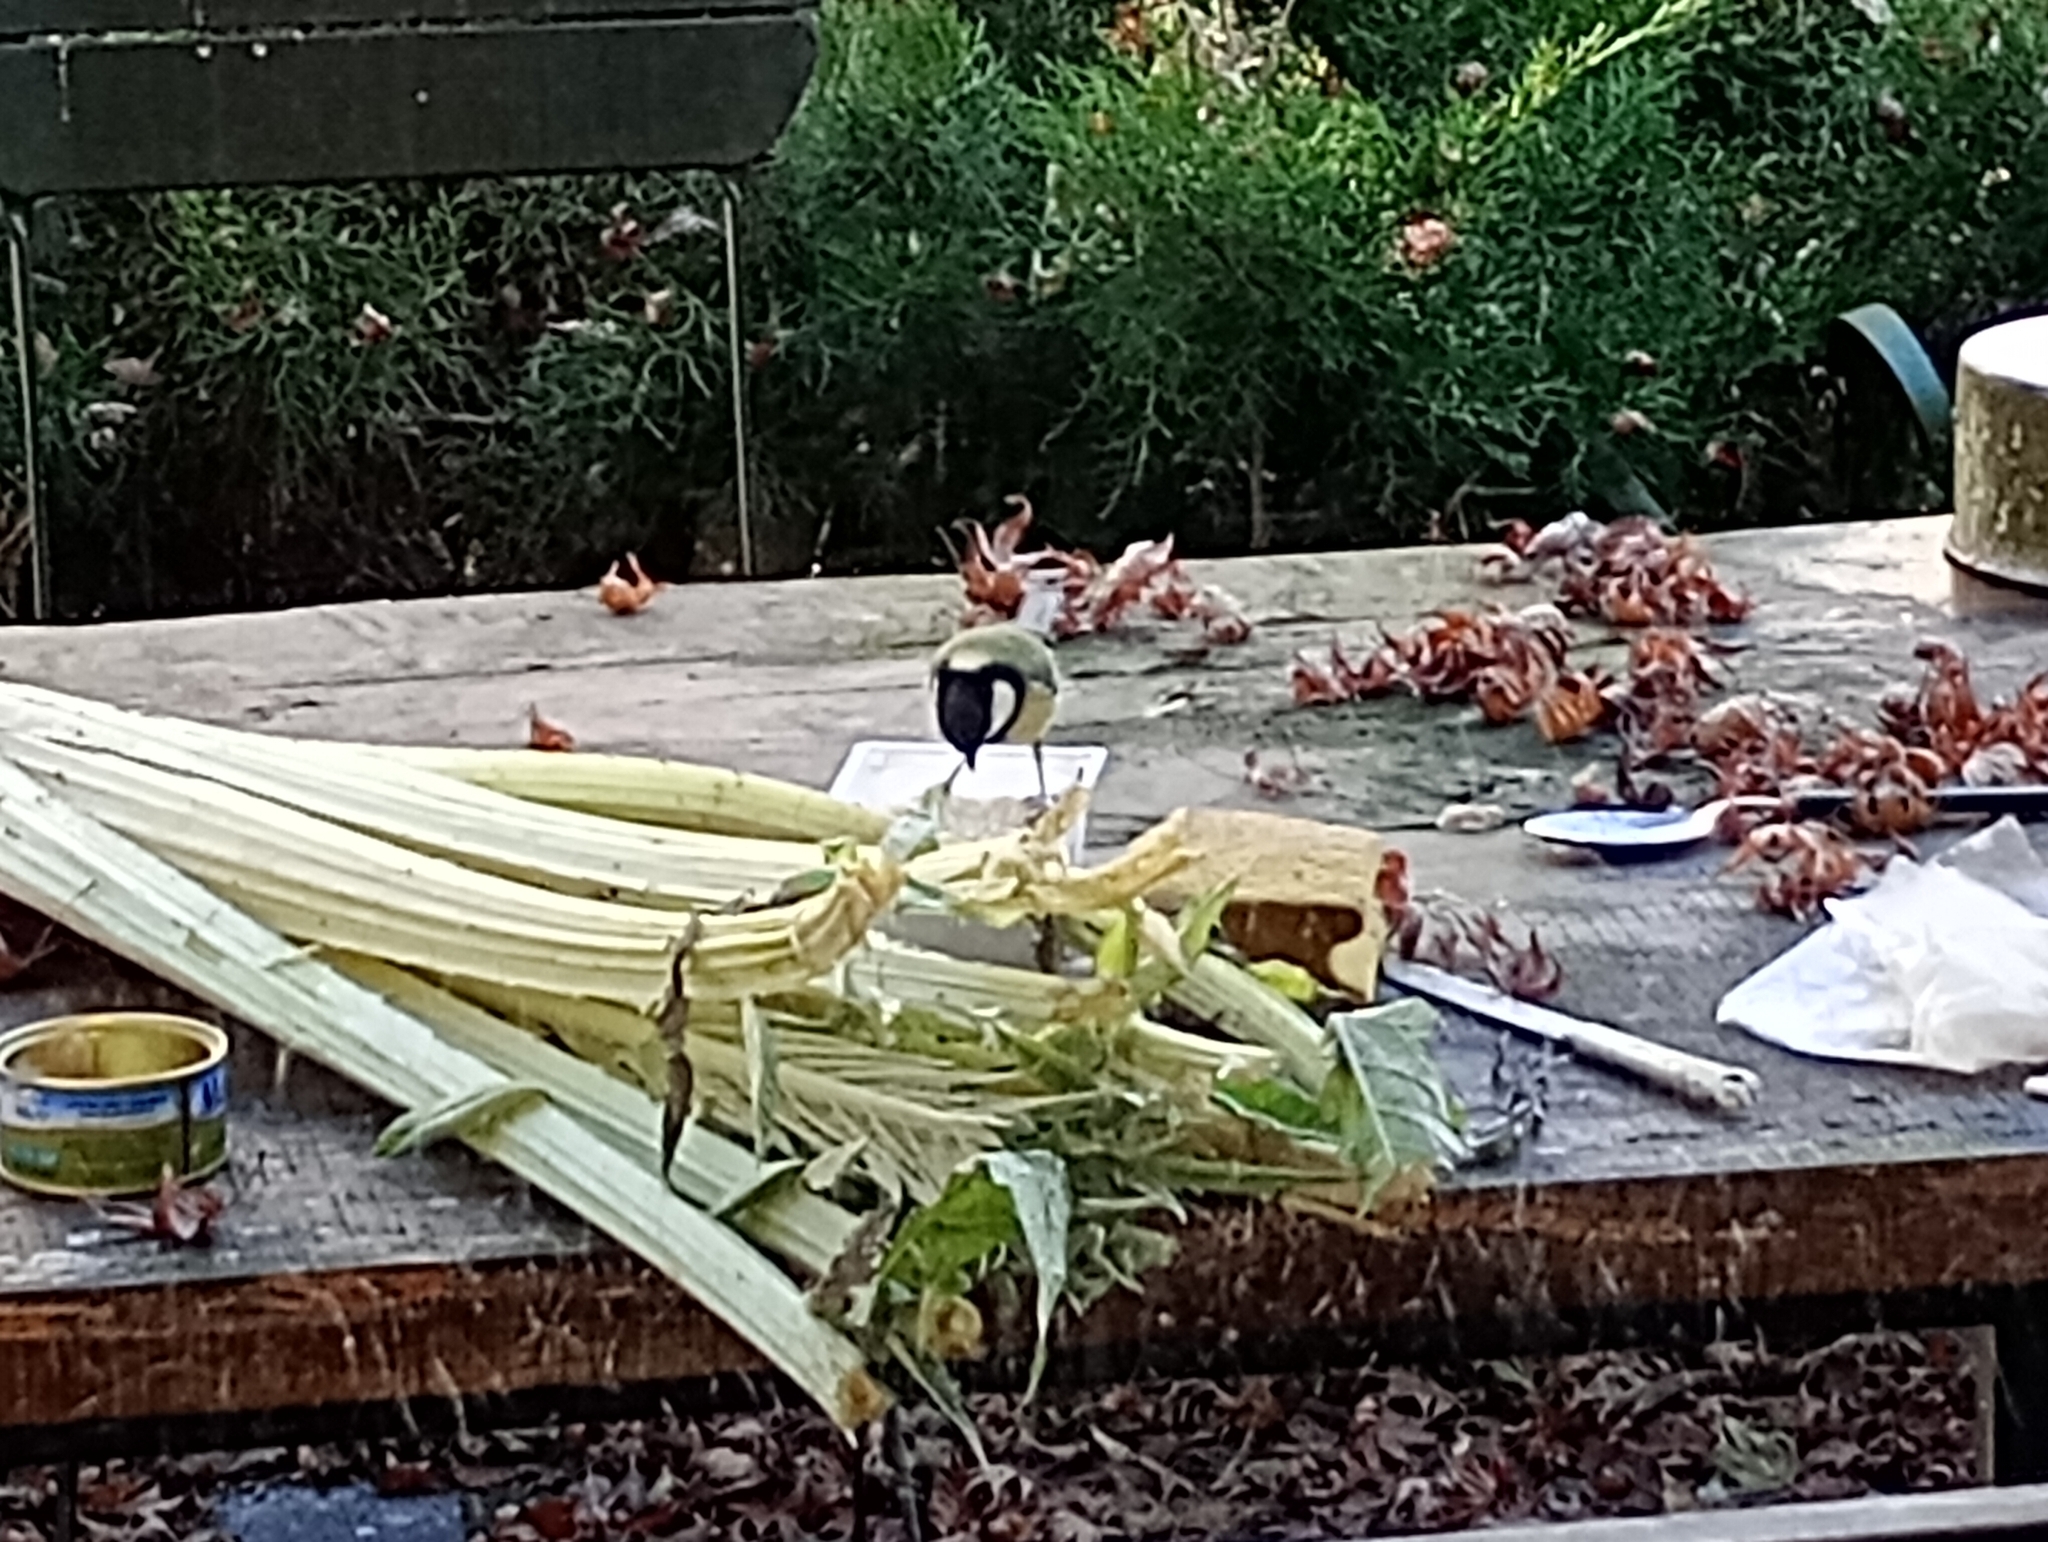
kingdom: Animalia
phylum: Chordata
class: Aves
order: Passeriformes
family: Paridae
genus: Parus
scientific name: Parus major
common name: Great tit
